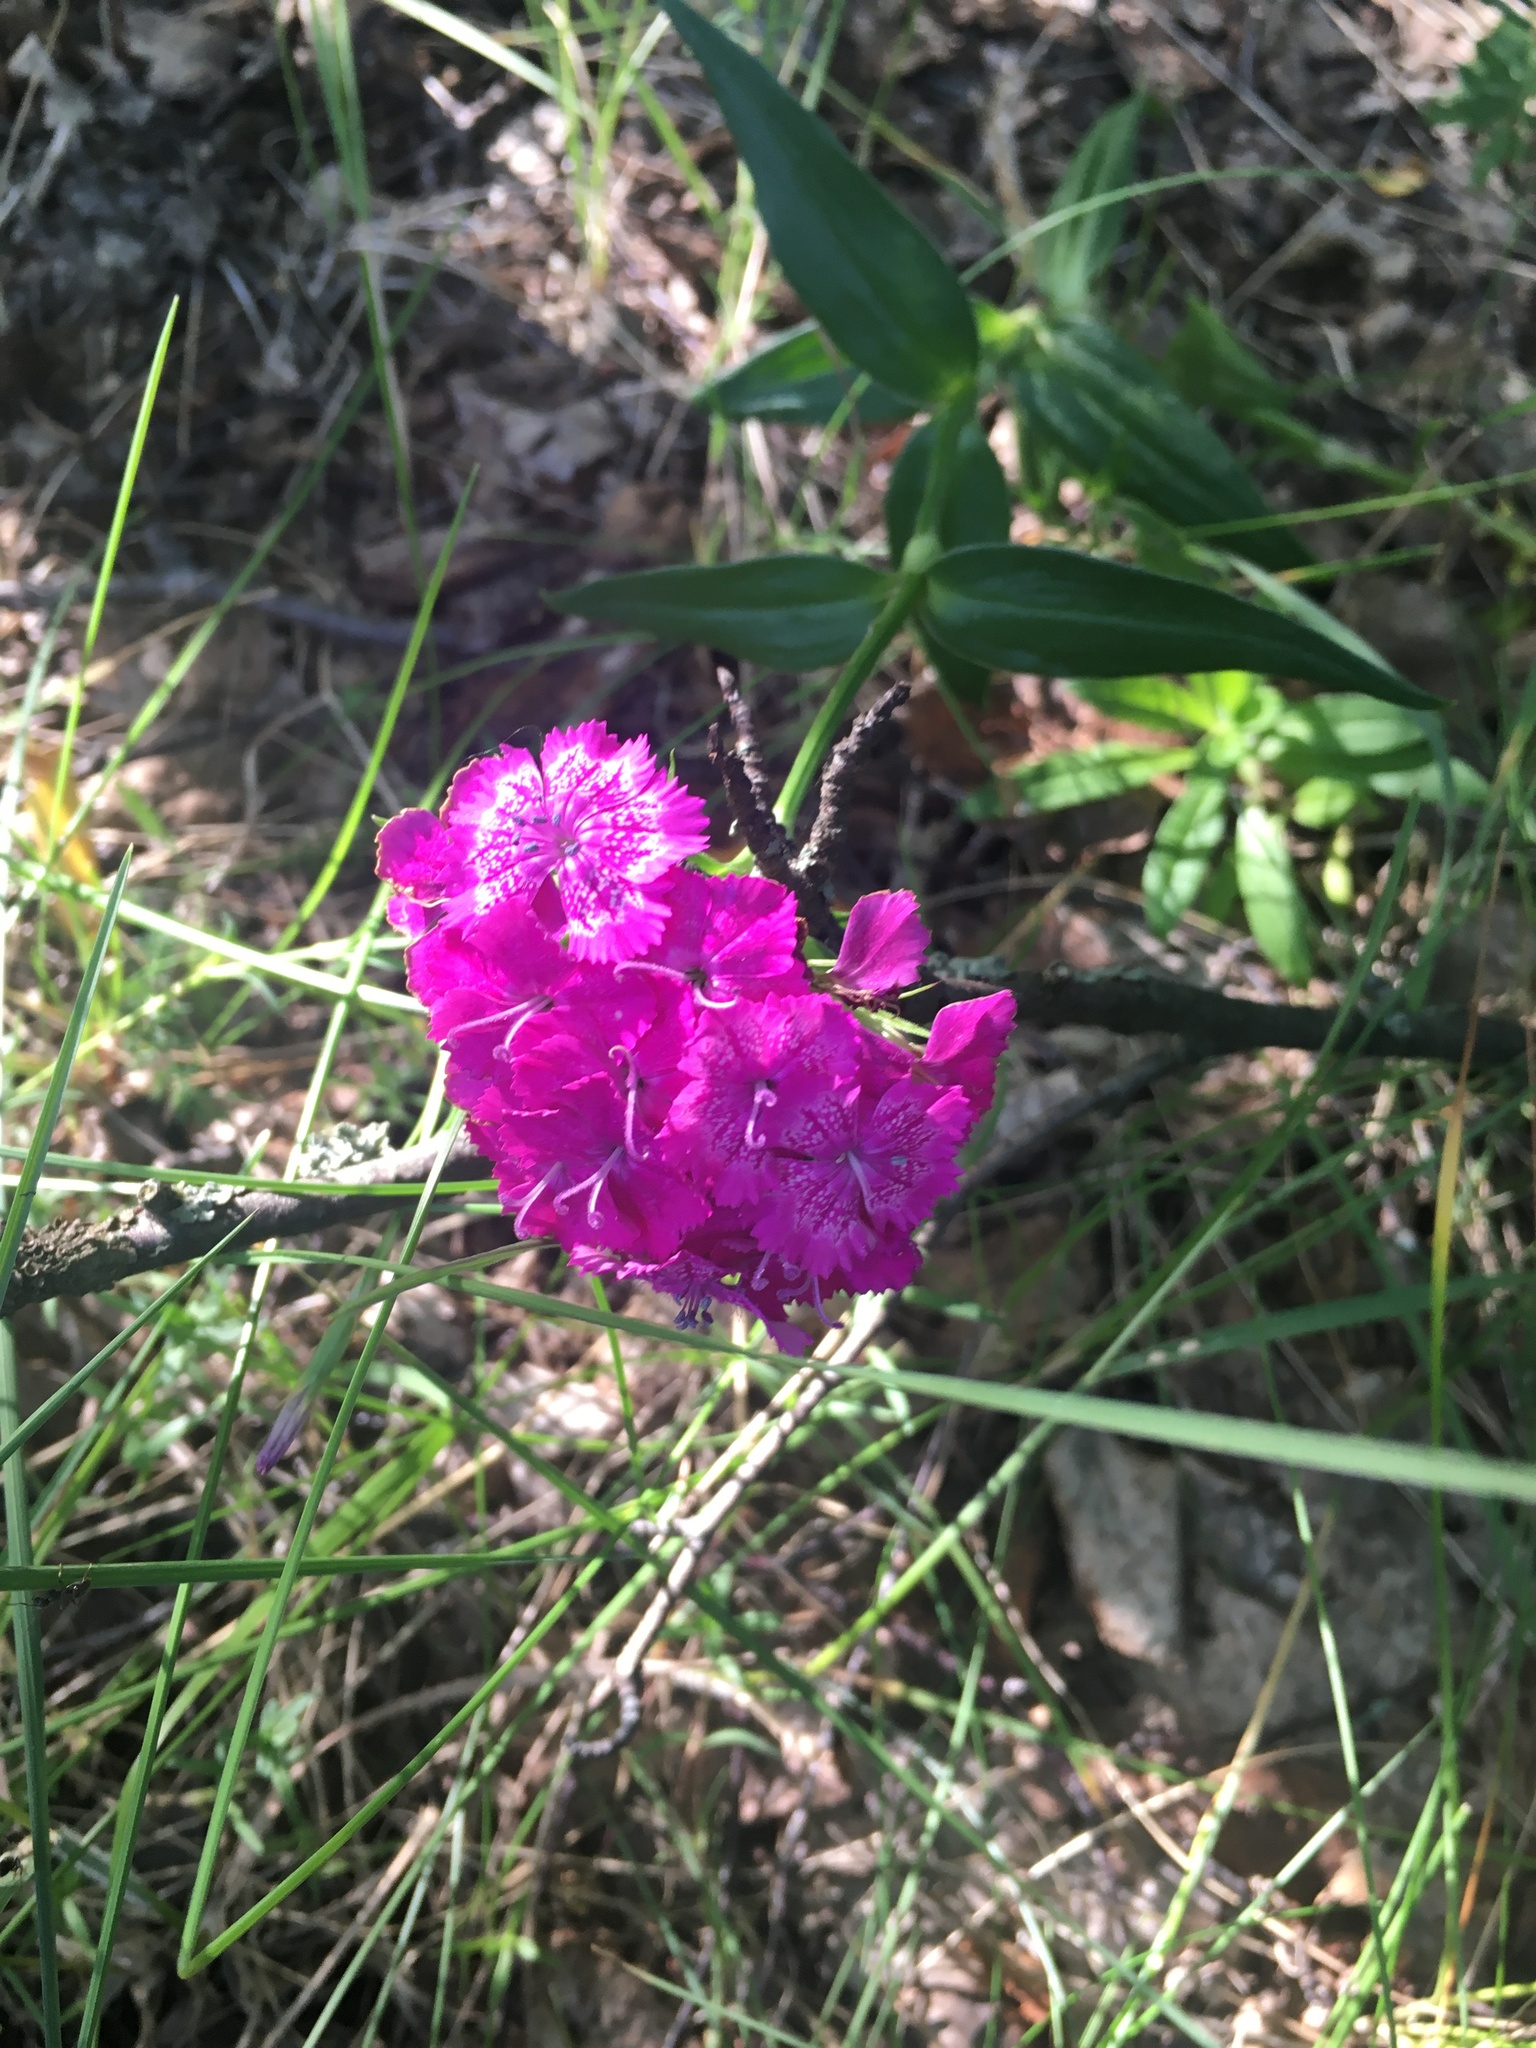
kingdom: Plantae
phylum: Tracheophyta
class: Magnoliopsida
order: Caryophyllales
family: Caryophyllaceae
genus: Dianthus
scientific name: Dianthus barbatus
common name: Sweet-william
